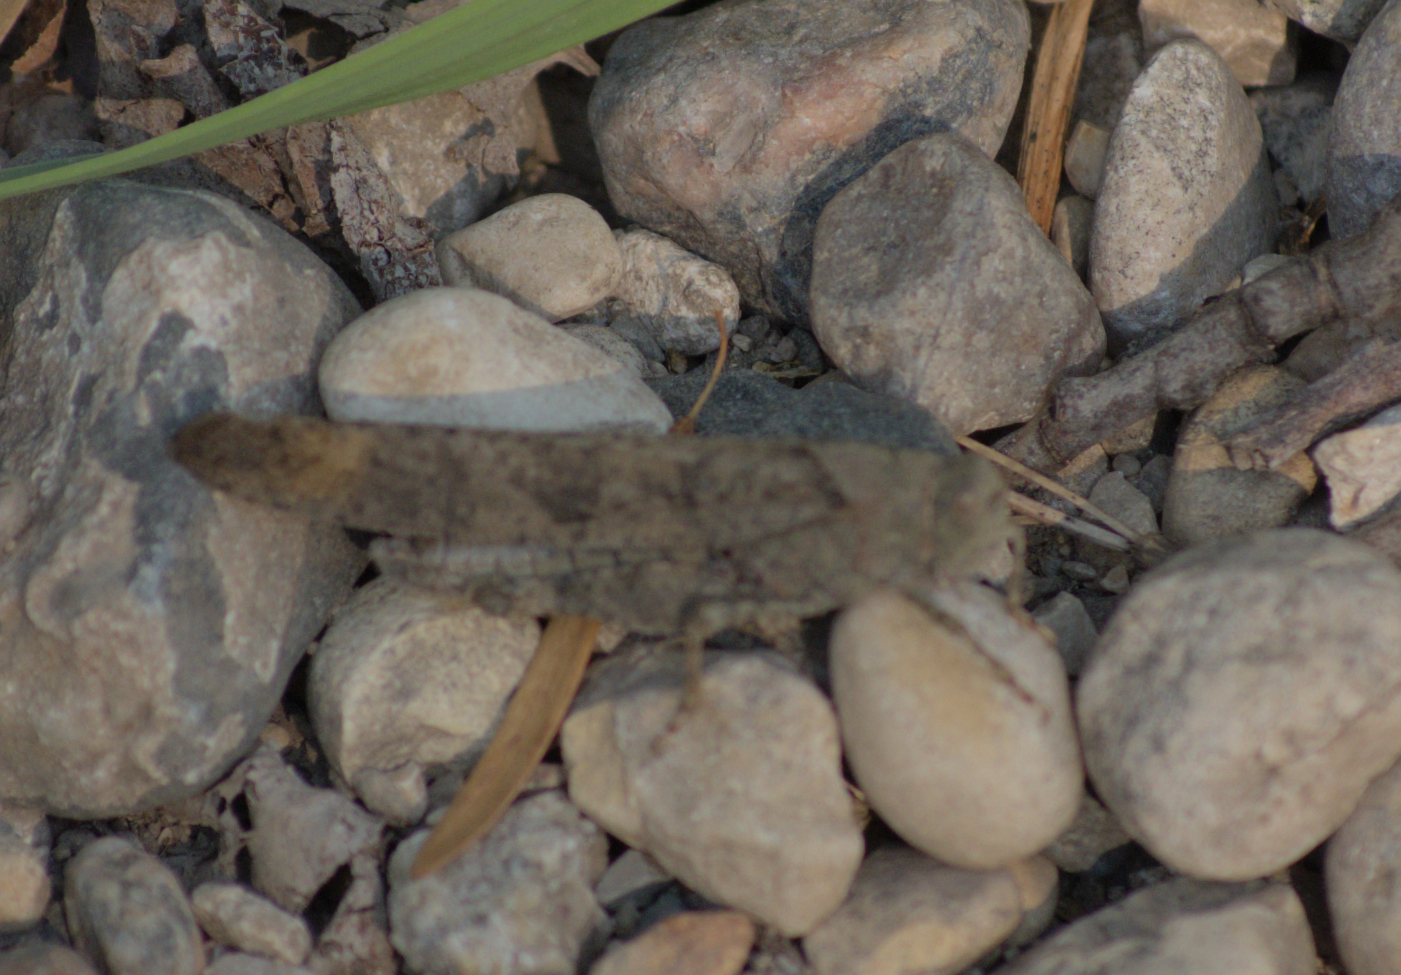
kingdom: Animalia
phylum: Arthropoda
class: Insecta
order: Orthoptera
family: Acrididae
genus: Dissosteira
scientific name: Dissosteira carolina
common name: Carolina grasshopper
